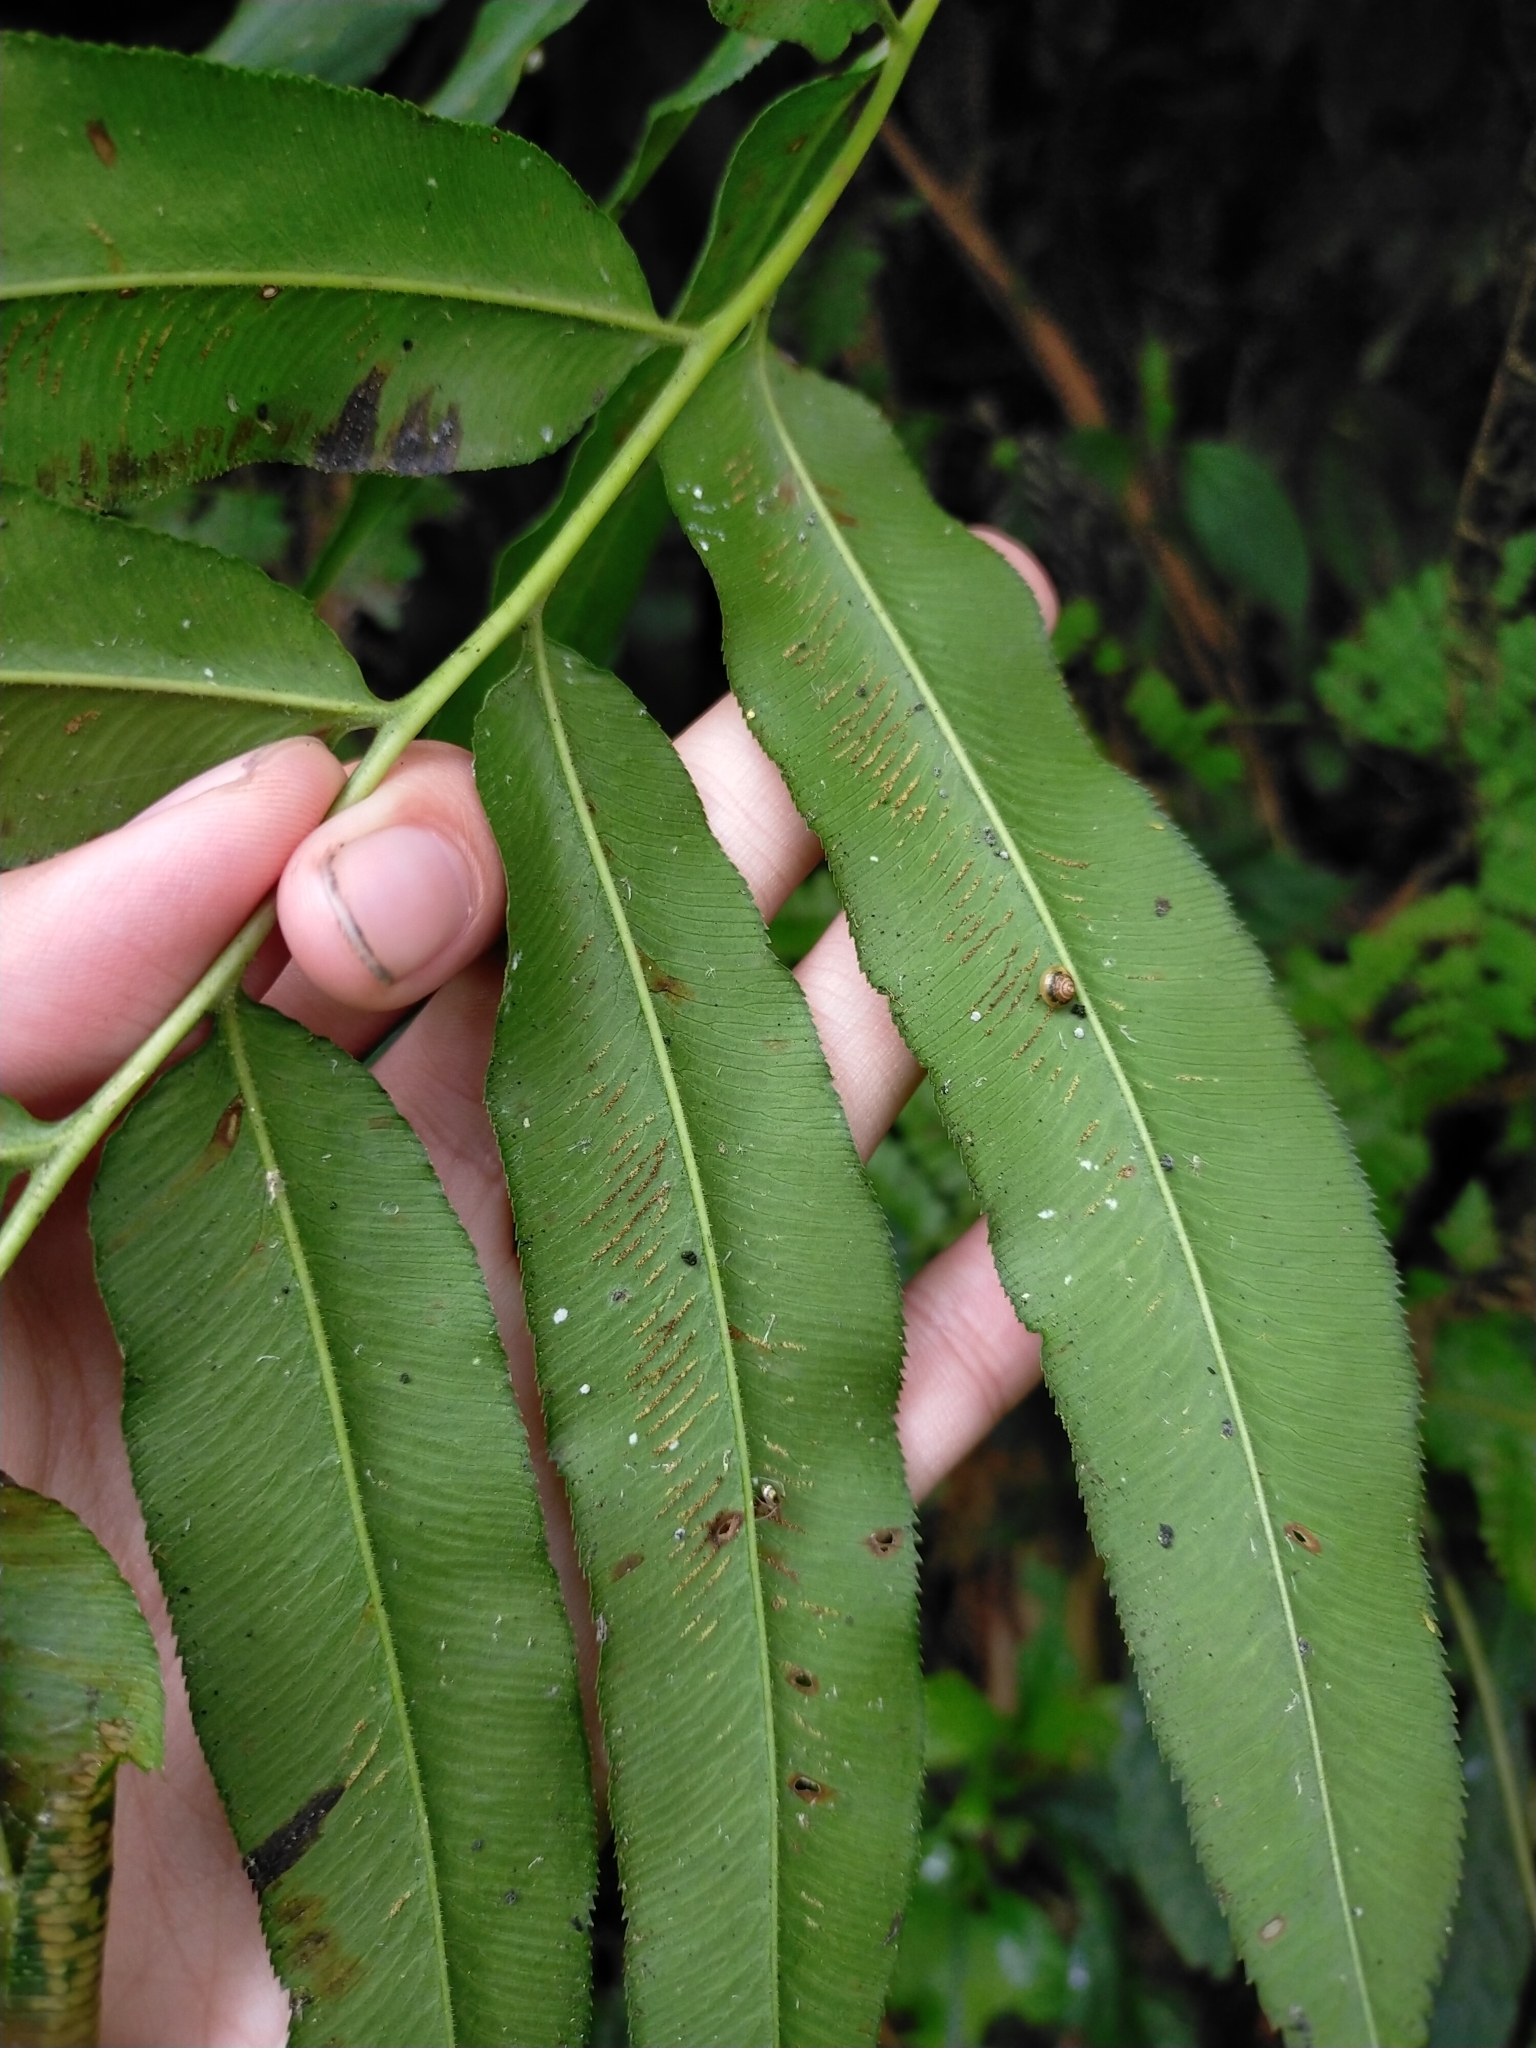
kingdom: Plantae
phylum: Tracheophyta
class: Polypodiopsida
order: Polypodiales
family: Pteridaceae
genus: Coniogramme
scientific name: Coniogramme intermedia
